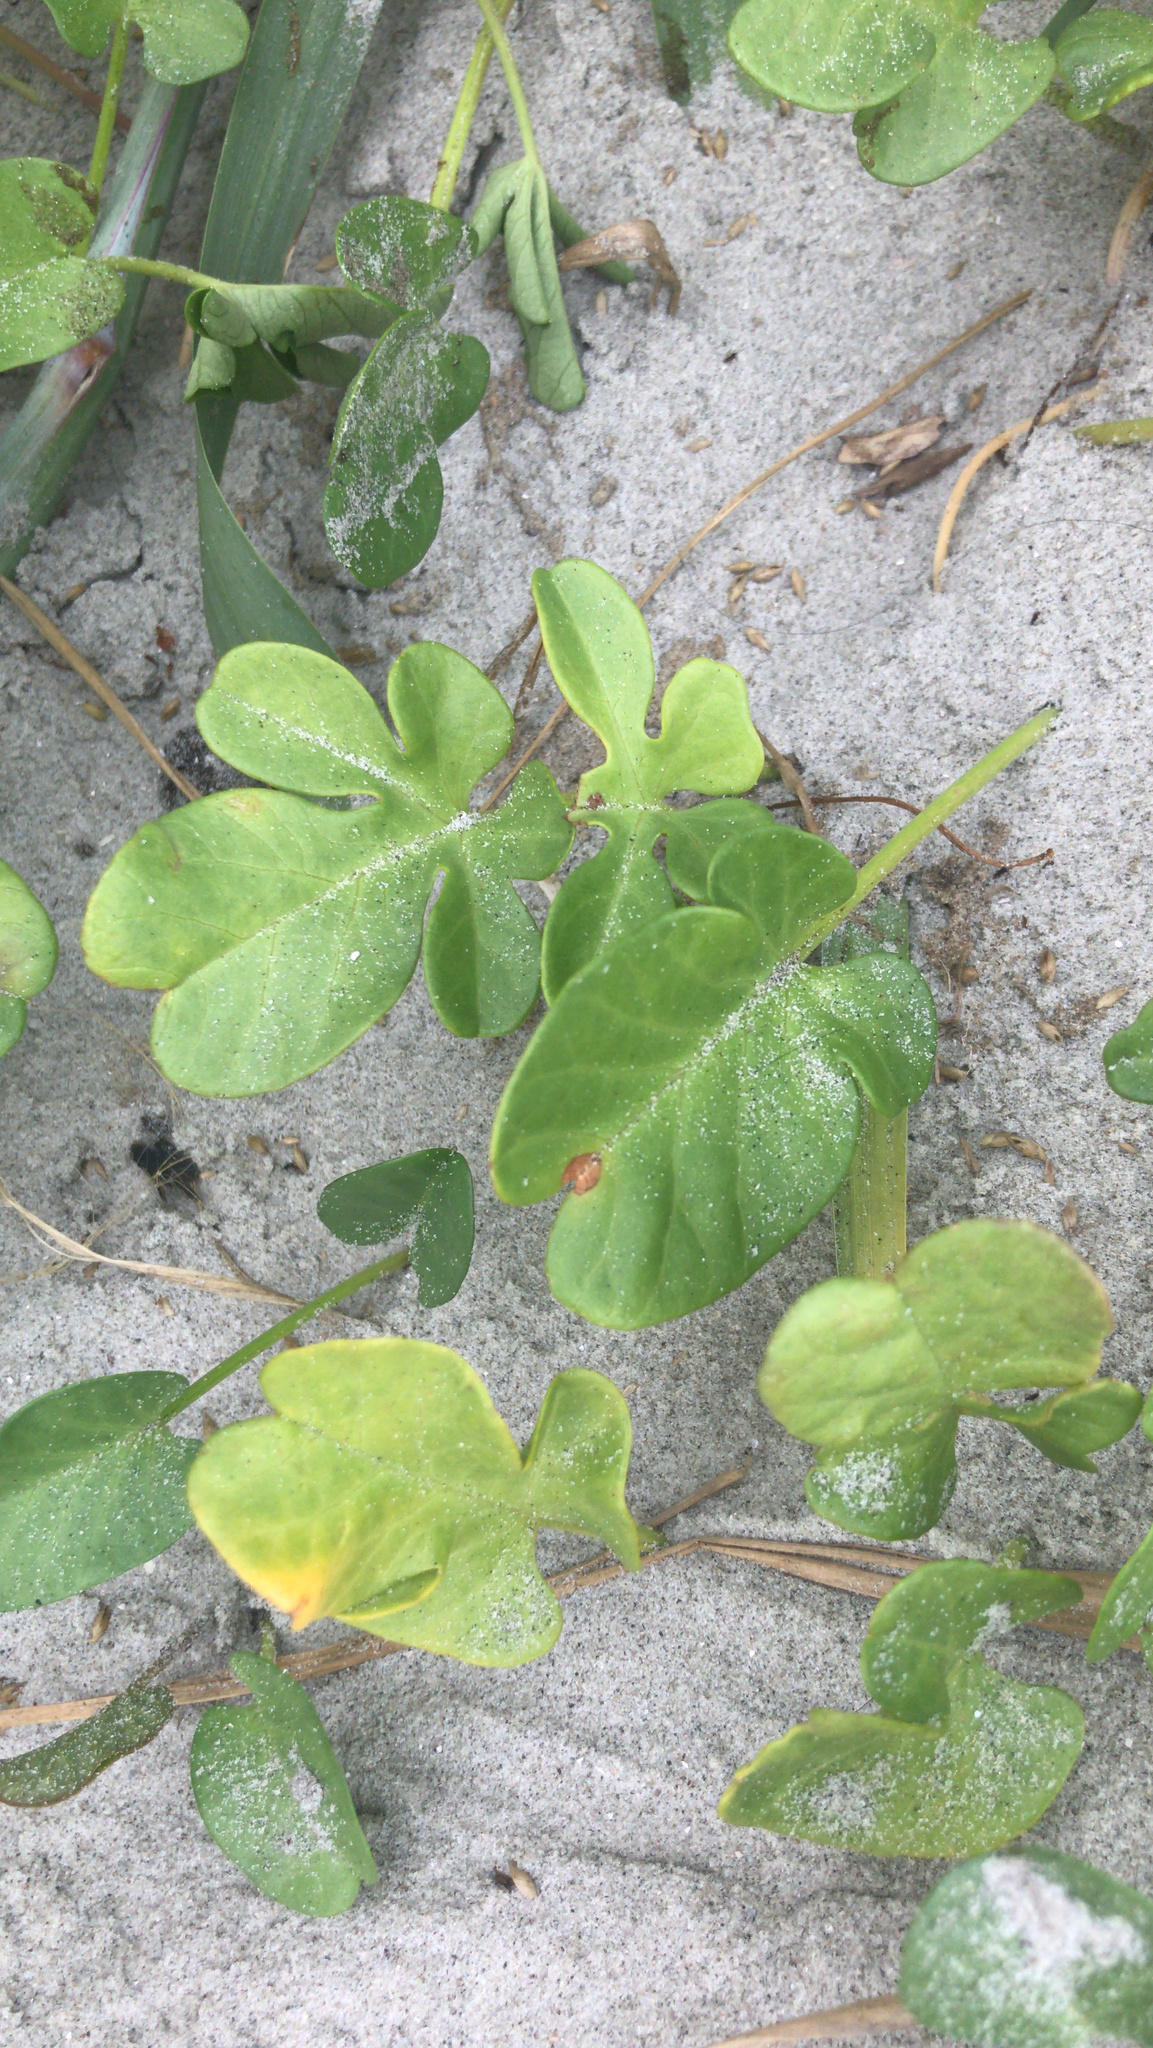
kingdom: Plantae
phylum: Tracheophyta
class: Magnoliopsida
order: Solanales
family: Convolvulaceae
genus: Ipomoea
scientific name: Ipomoea imperati
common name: Fiddle-leaf morning-glory
